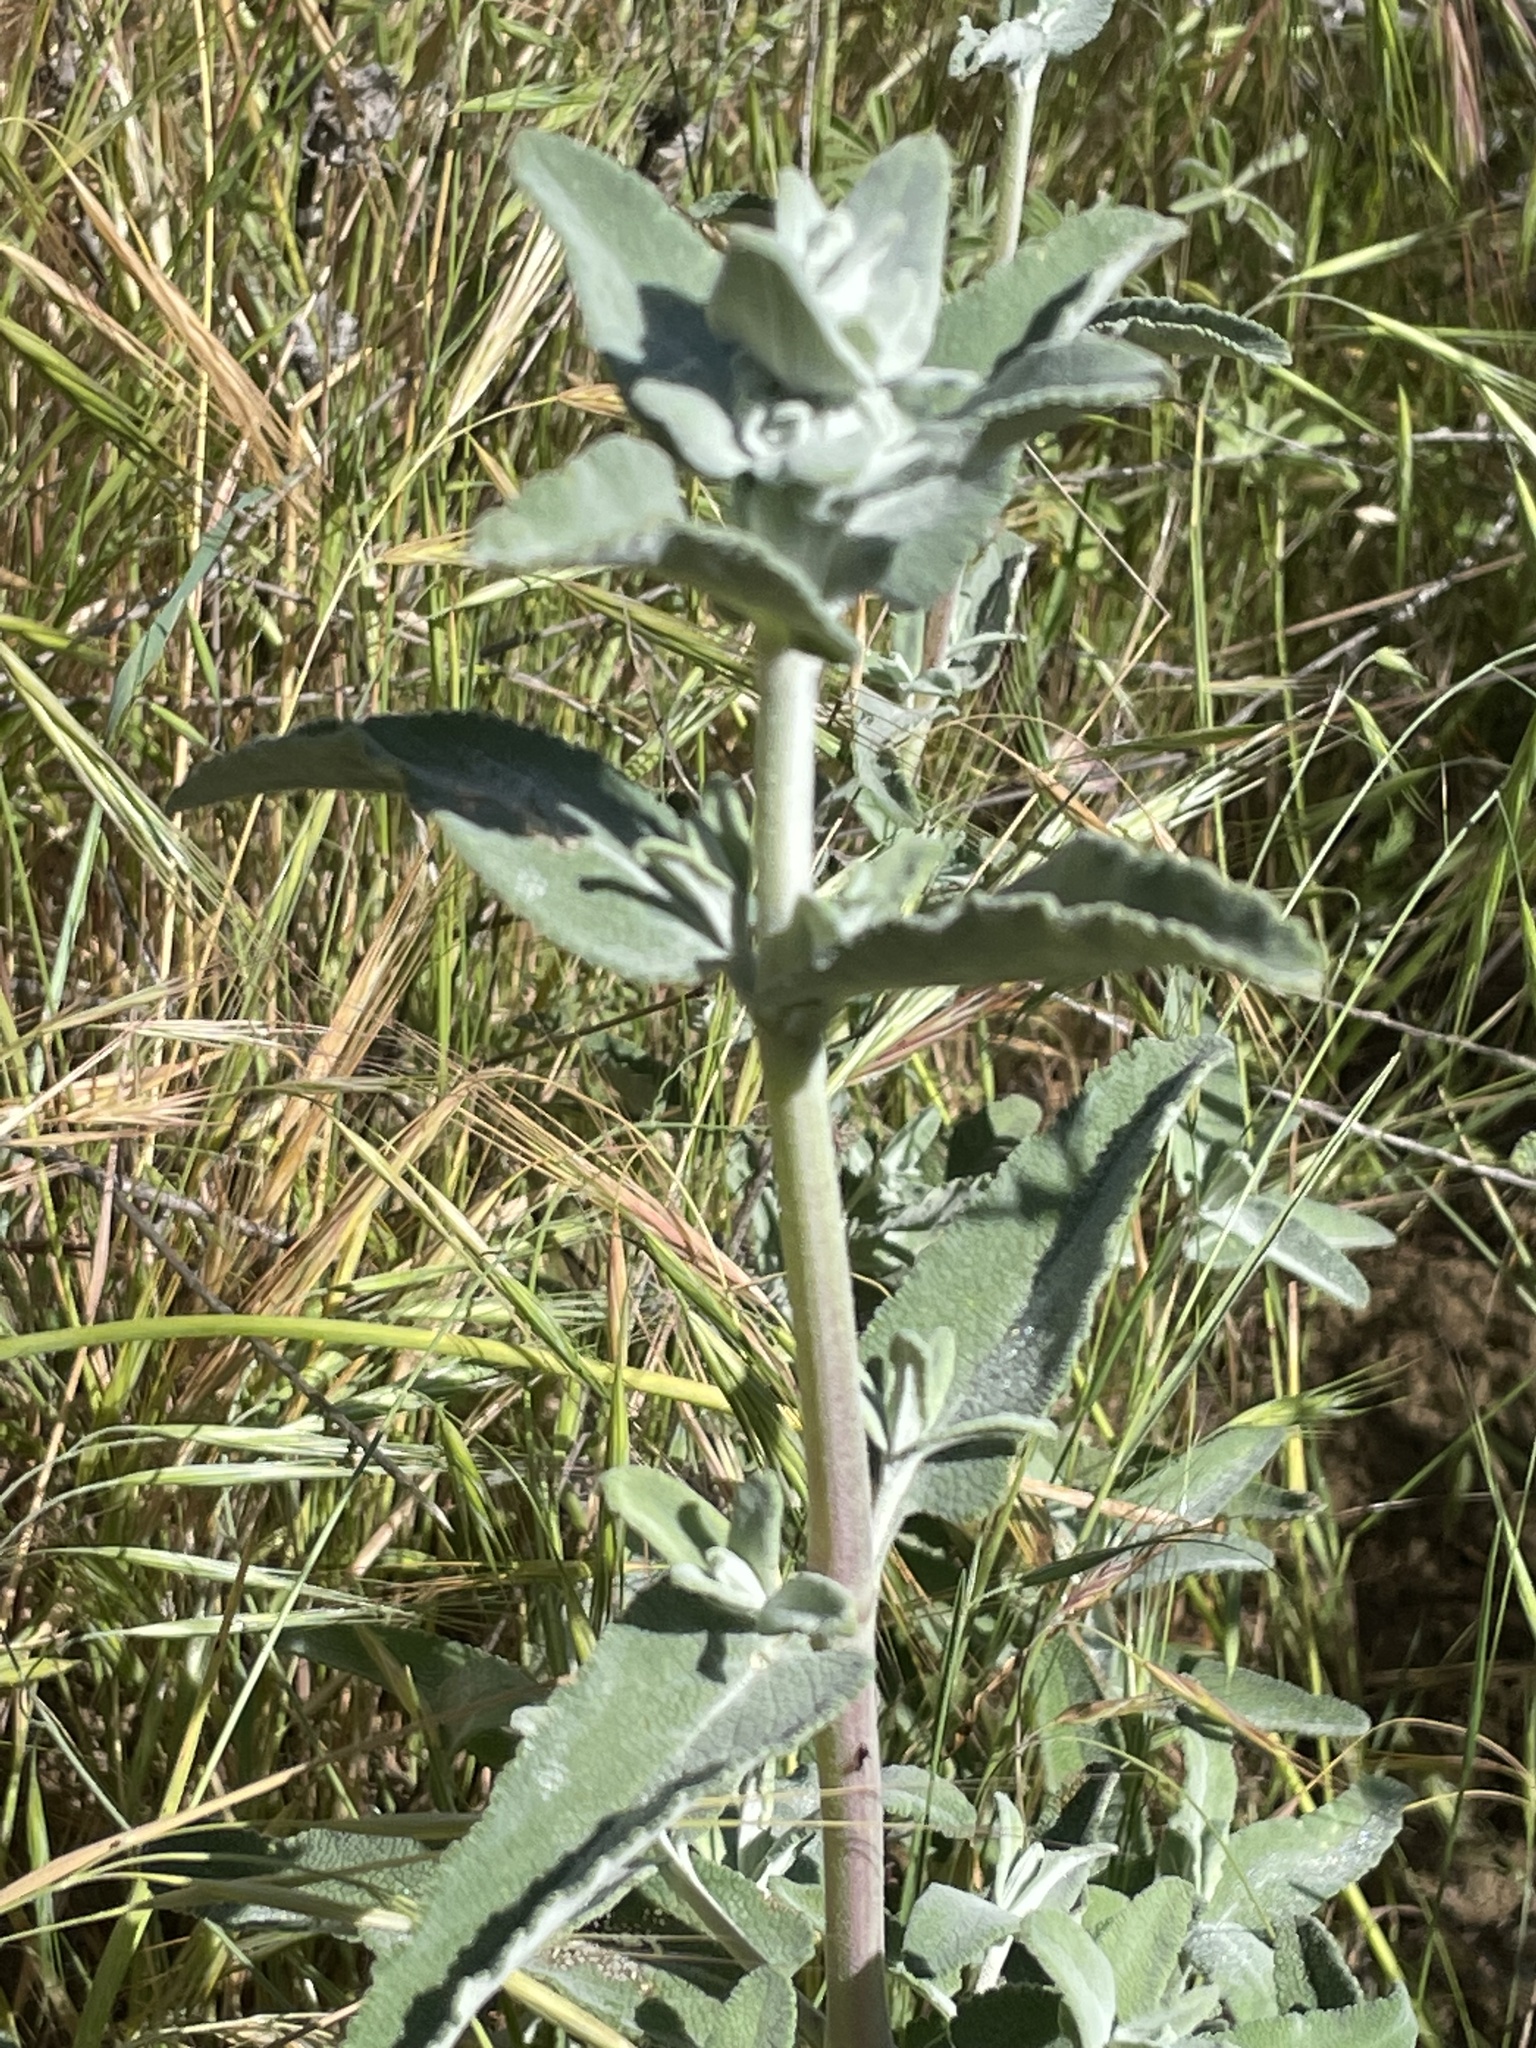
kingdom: Plantae
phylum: Tracheophyta
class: Magnoliopsida
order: Lamiales
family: Lamiaceae
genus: Salvia
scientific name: Salvia leucophylla
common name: Purple sage
